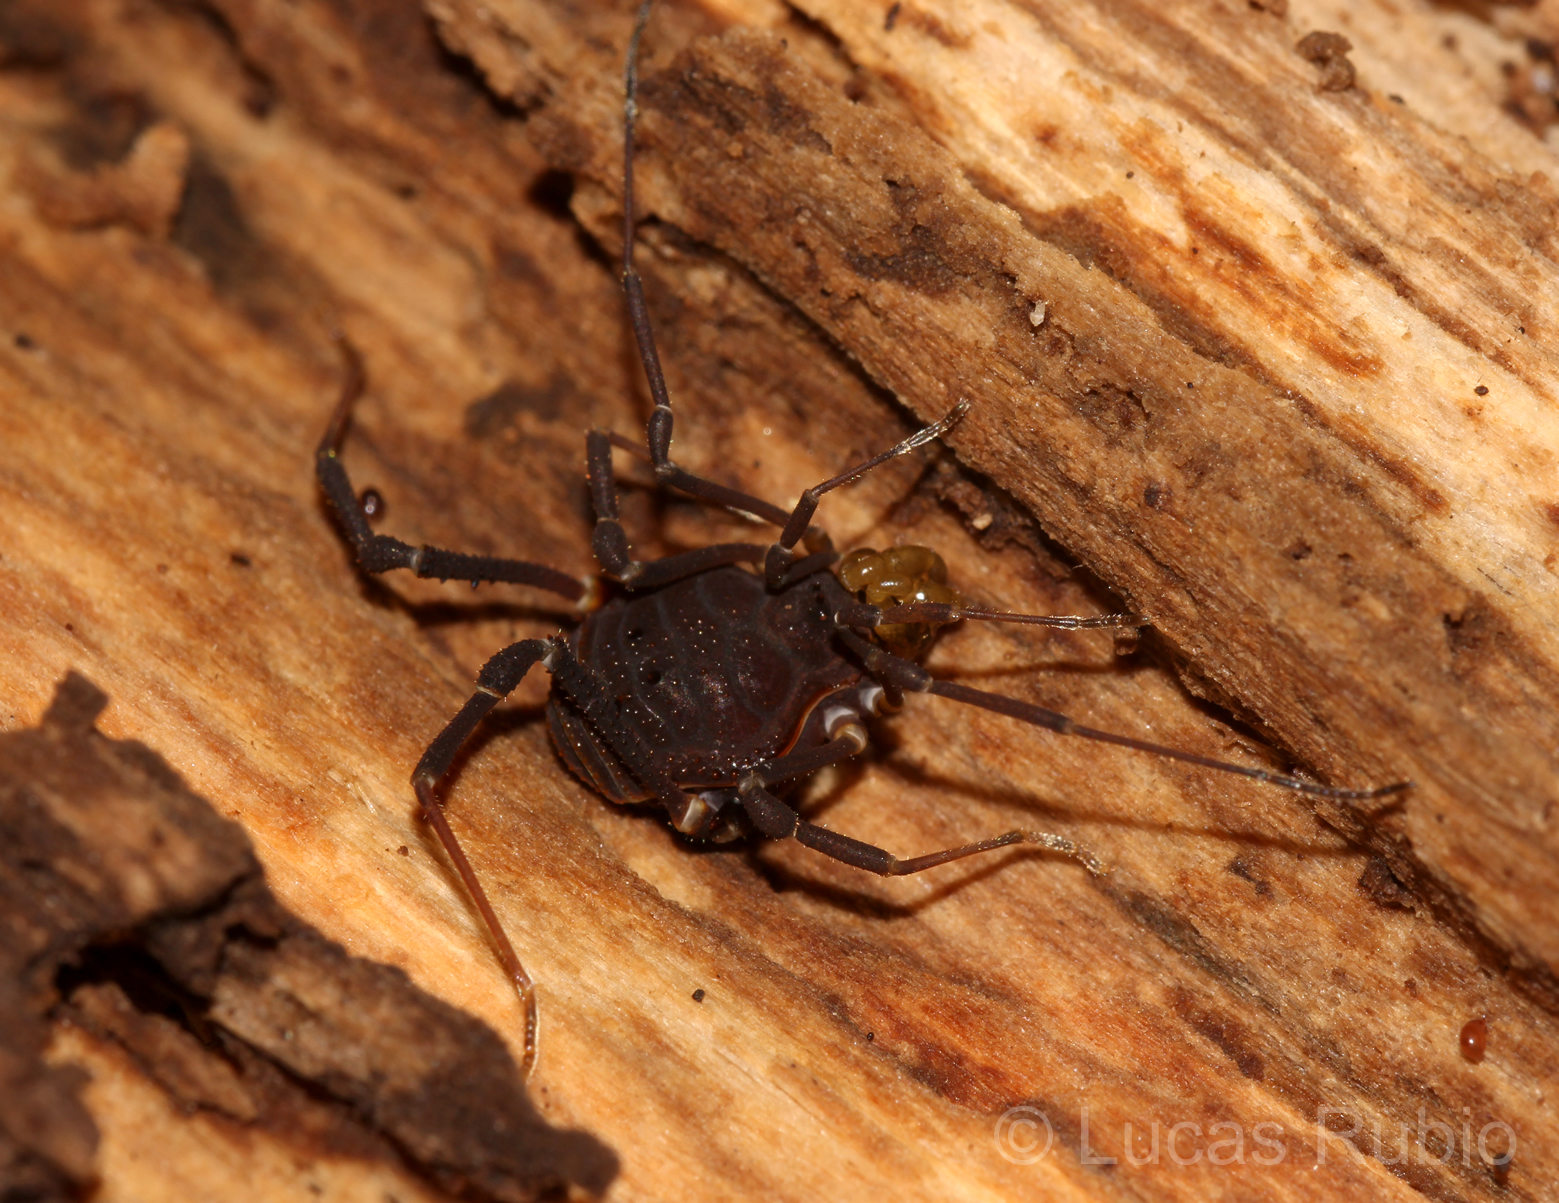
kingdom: Animalia
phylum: Arthropoda
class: Arachnida
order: Opiliones
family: Gonyleptidae
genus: Opisthoplatus
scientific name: Opisthoplatus prospicuus
